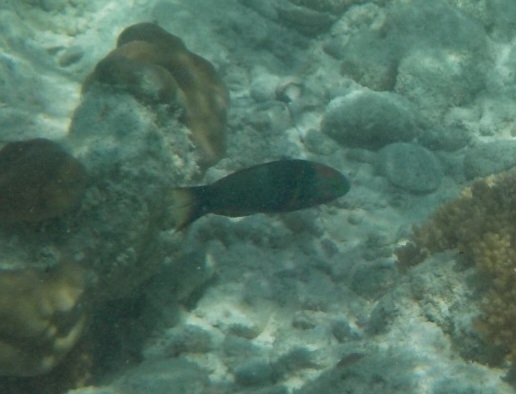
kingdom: Animalia
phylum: Chordata
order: Perciformes
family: Labridae
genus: Thalassoma
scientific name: Thalassoma hebraicum
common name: Goldbar wrasse
